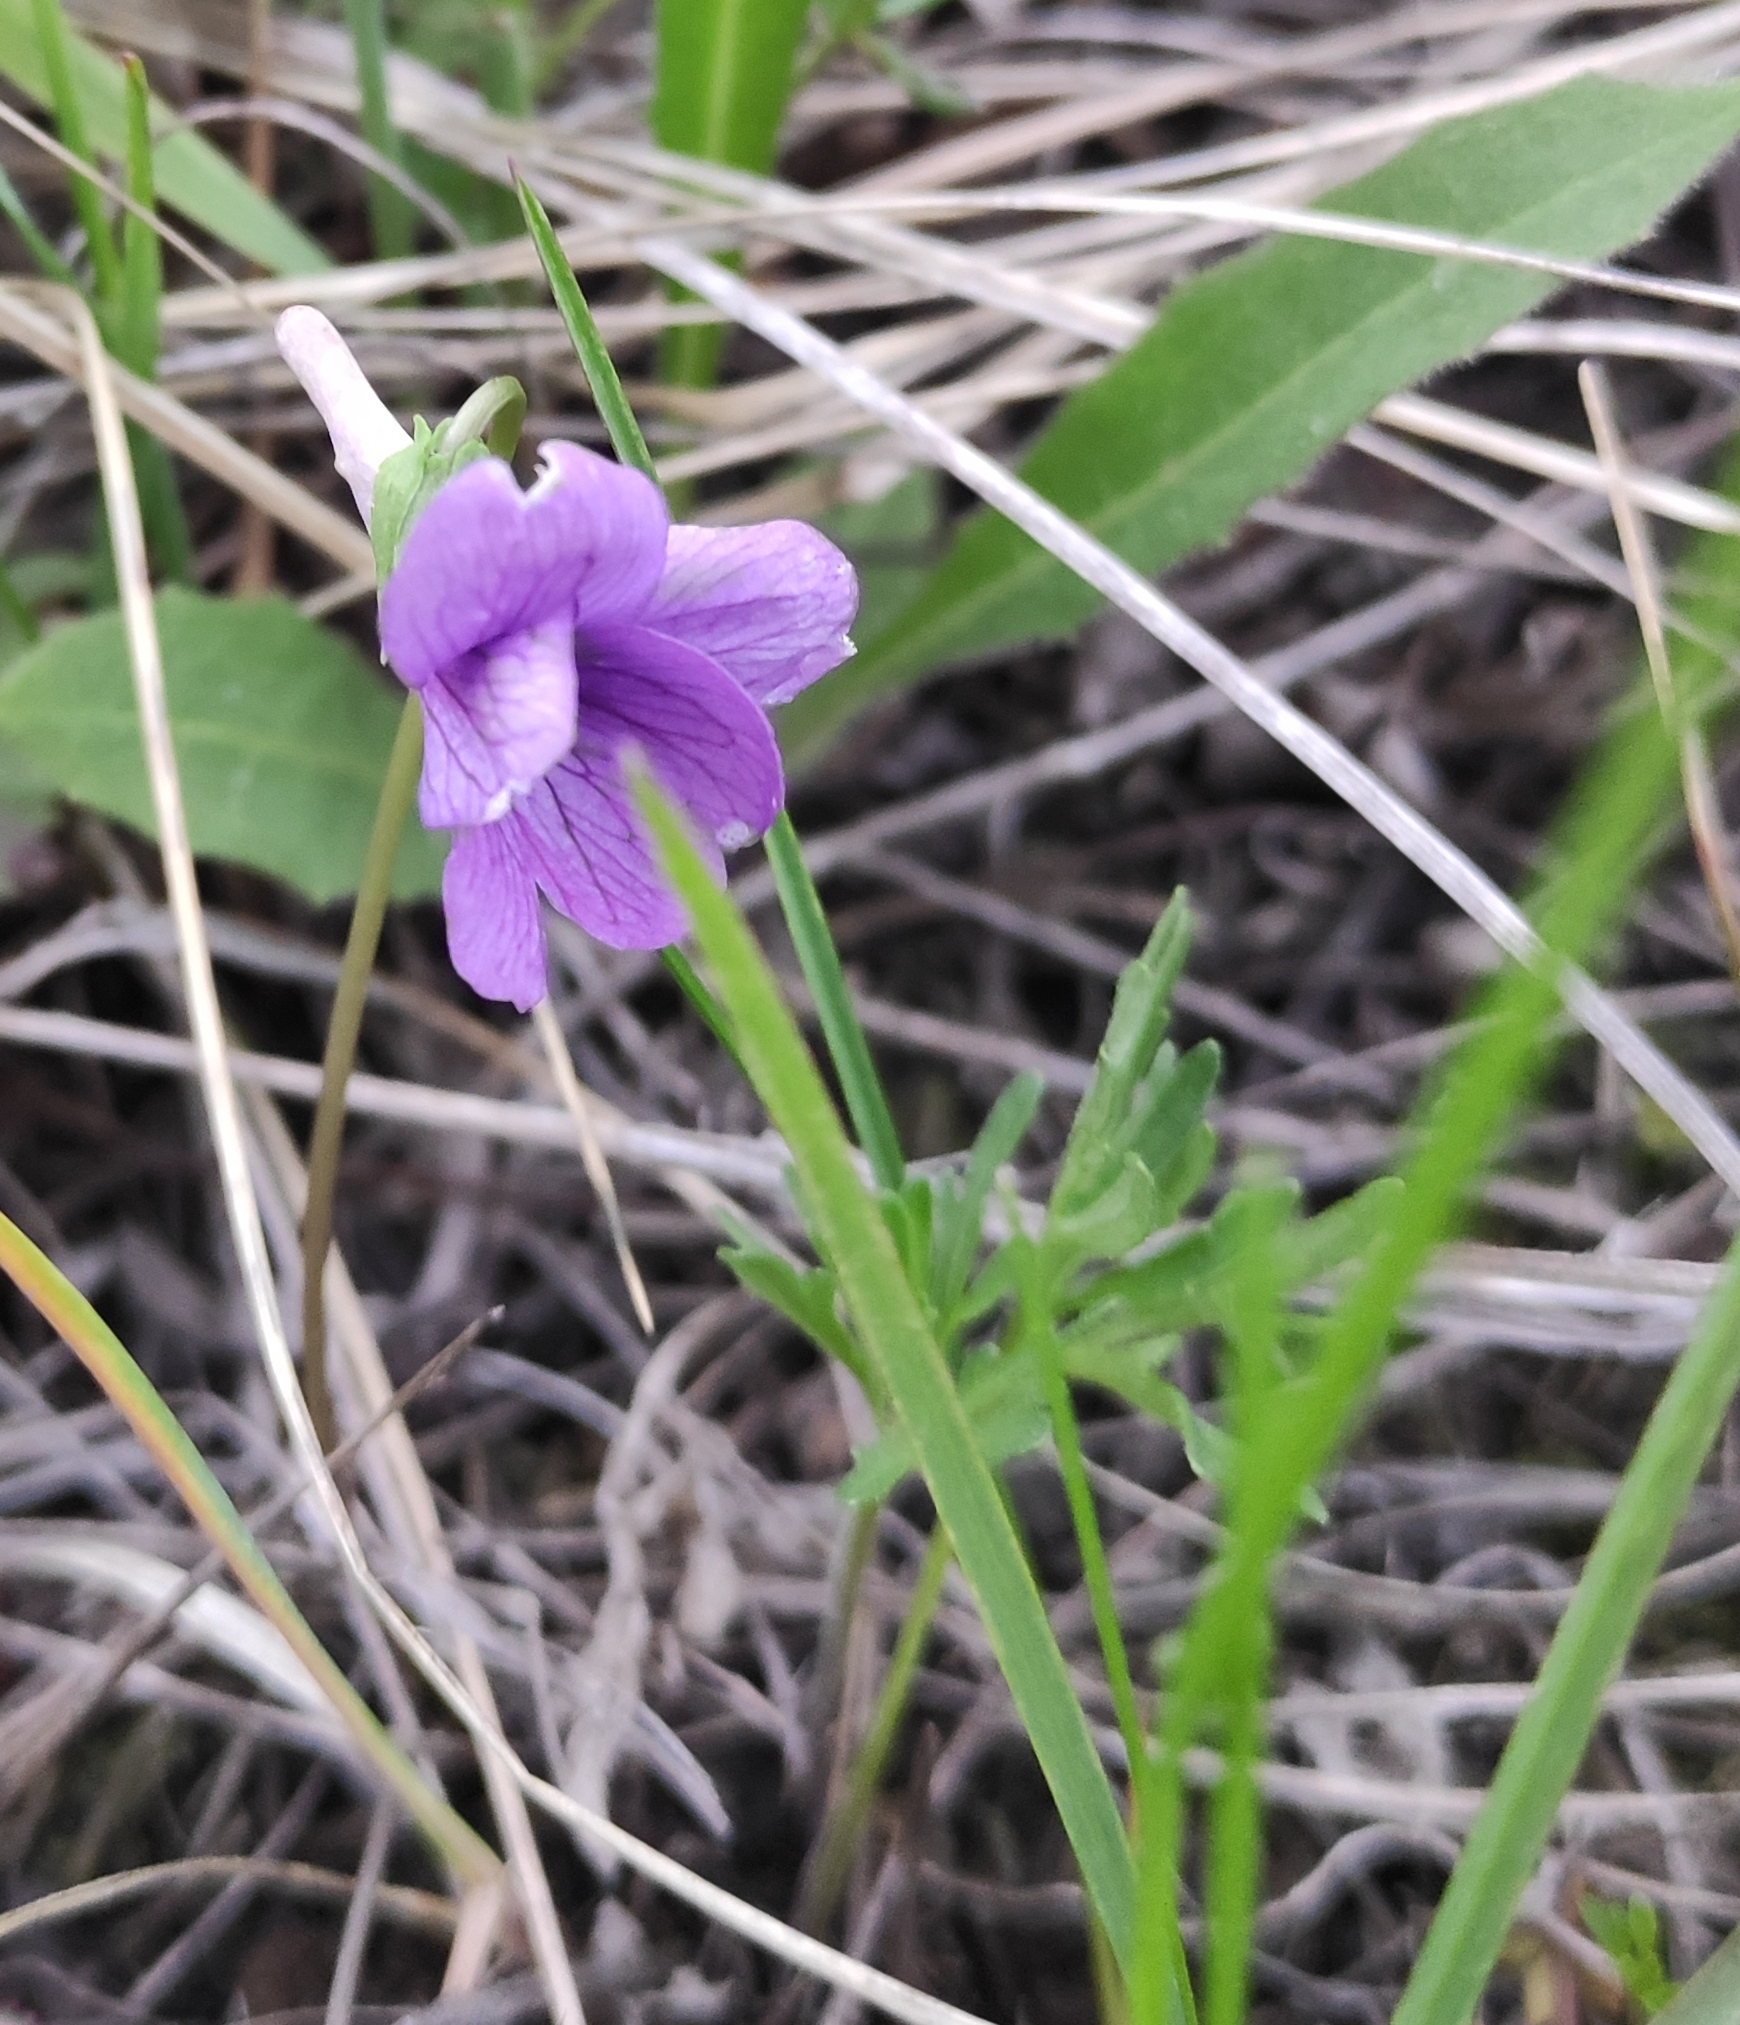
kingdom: Plantae
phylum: Tracheophyta
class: Magnoliopsida
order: Malpighiales
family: Violaceae
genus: Viola
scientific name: Viola multifida
